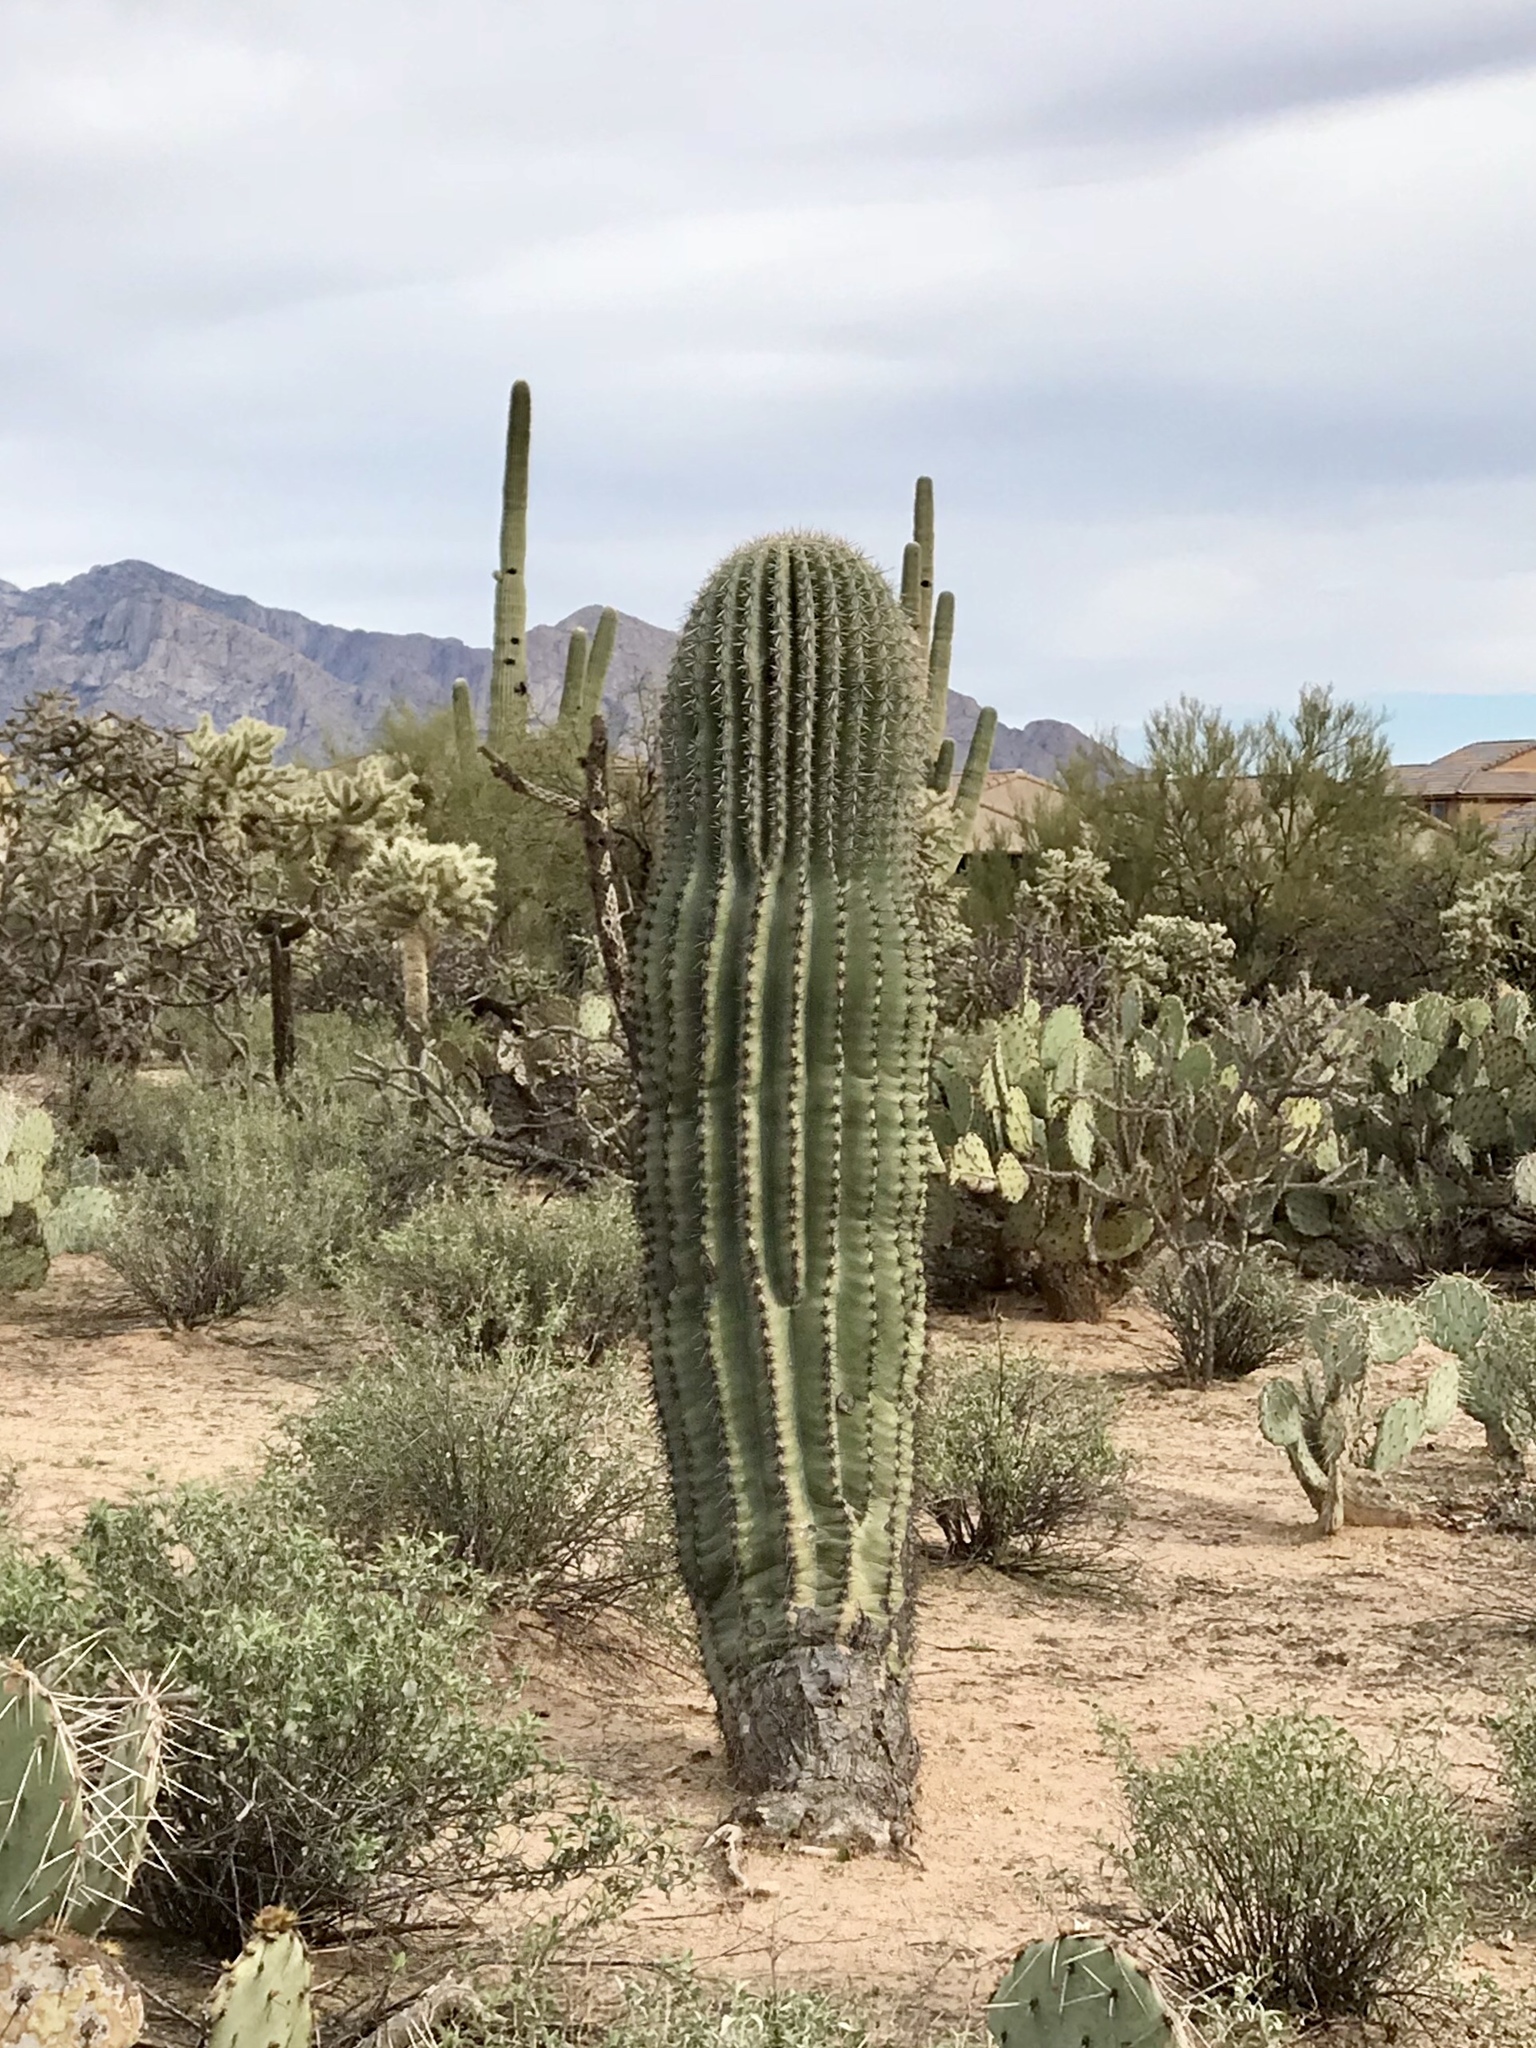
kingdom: Plantae
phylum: Tracheophyta
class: Magnoliopsida
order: Caryophyllales
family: Cactaceae
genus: Carnegiea
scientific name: Carnegiea gigantea
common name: Saguaro
